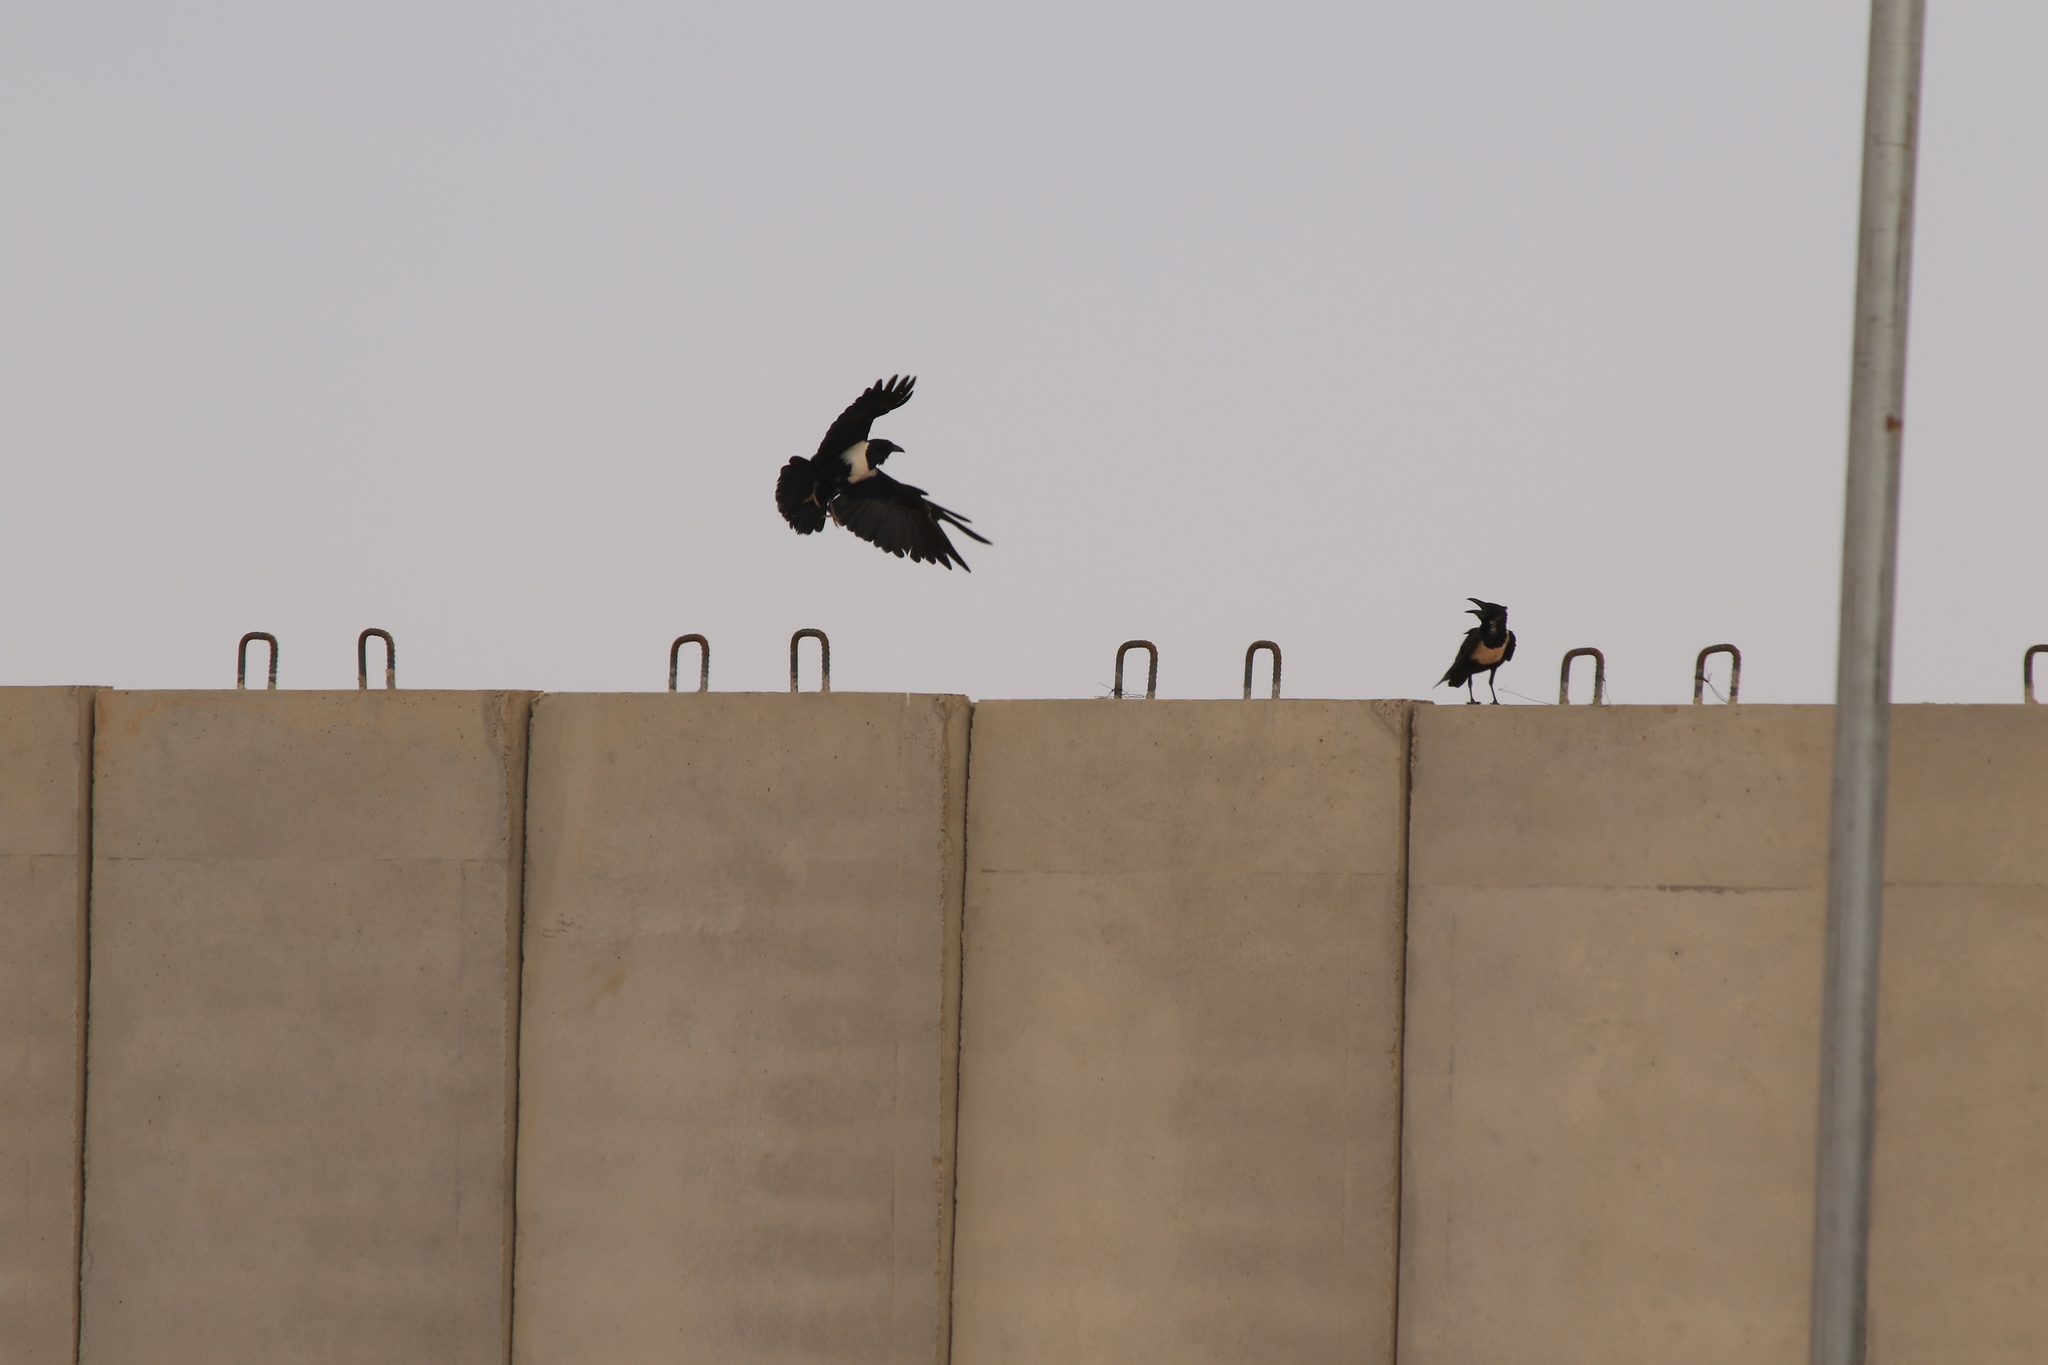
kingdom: Animalia
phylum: Chordata
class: Aves
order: Passeriformes
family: Corvidae
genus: Corvus
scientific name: Corvus albus
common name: Pied crow
